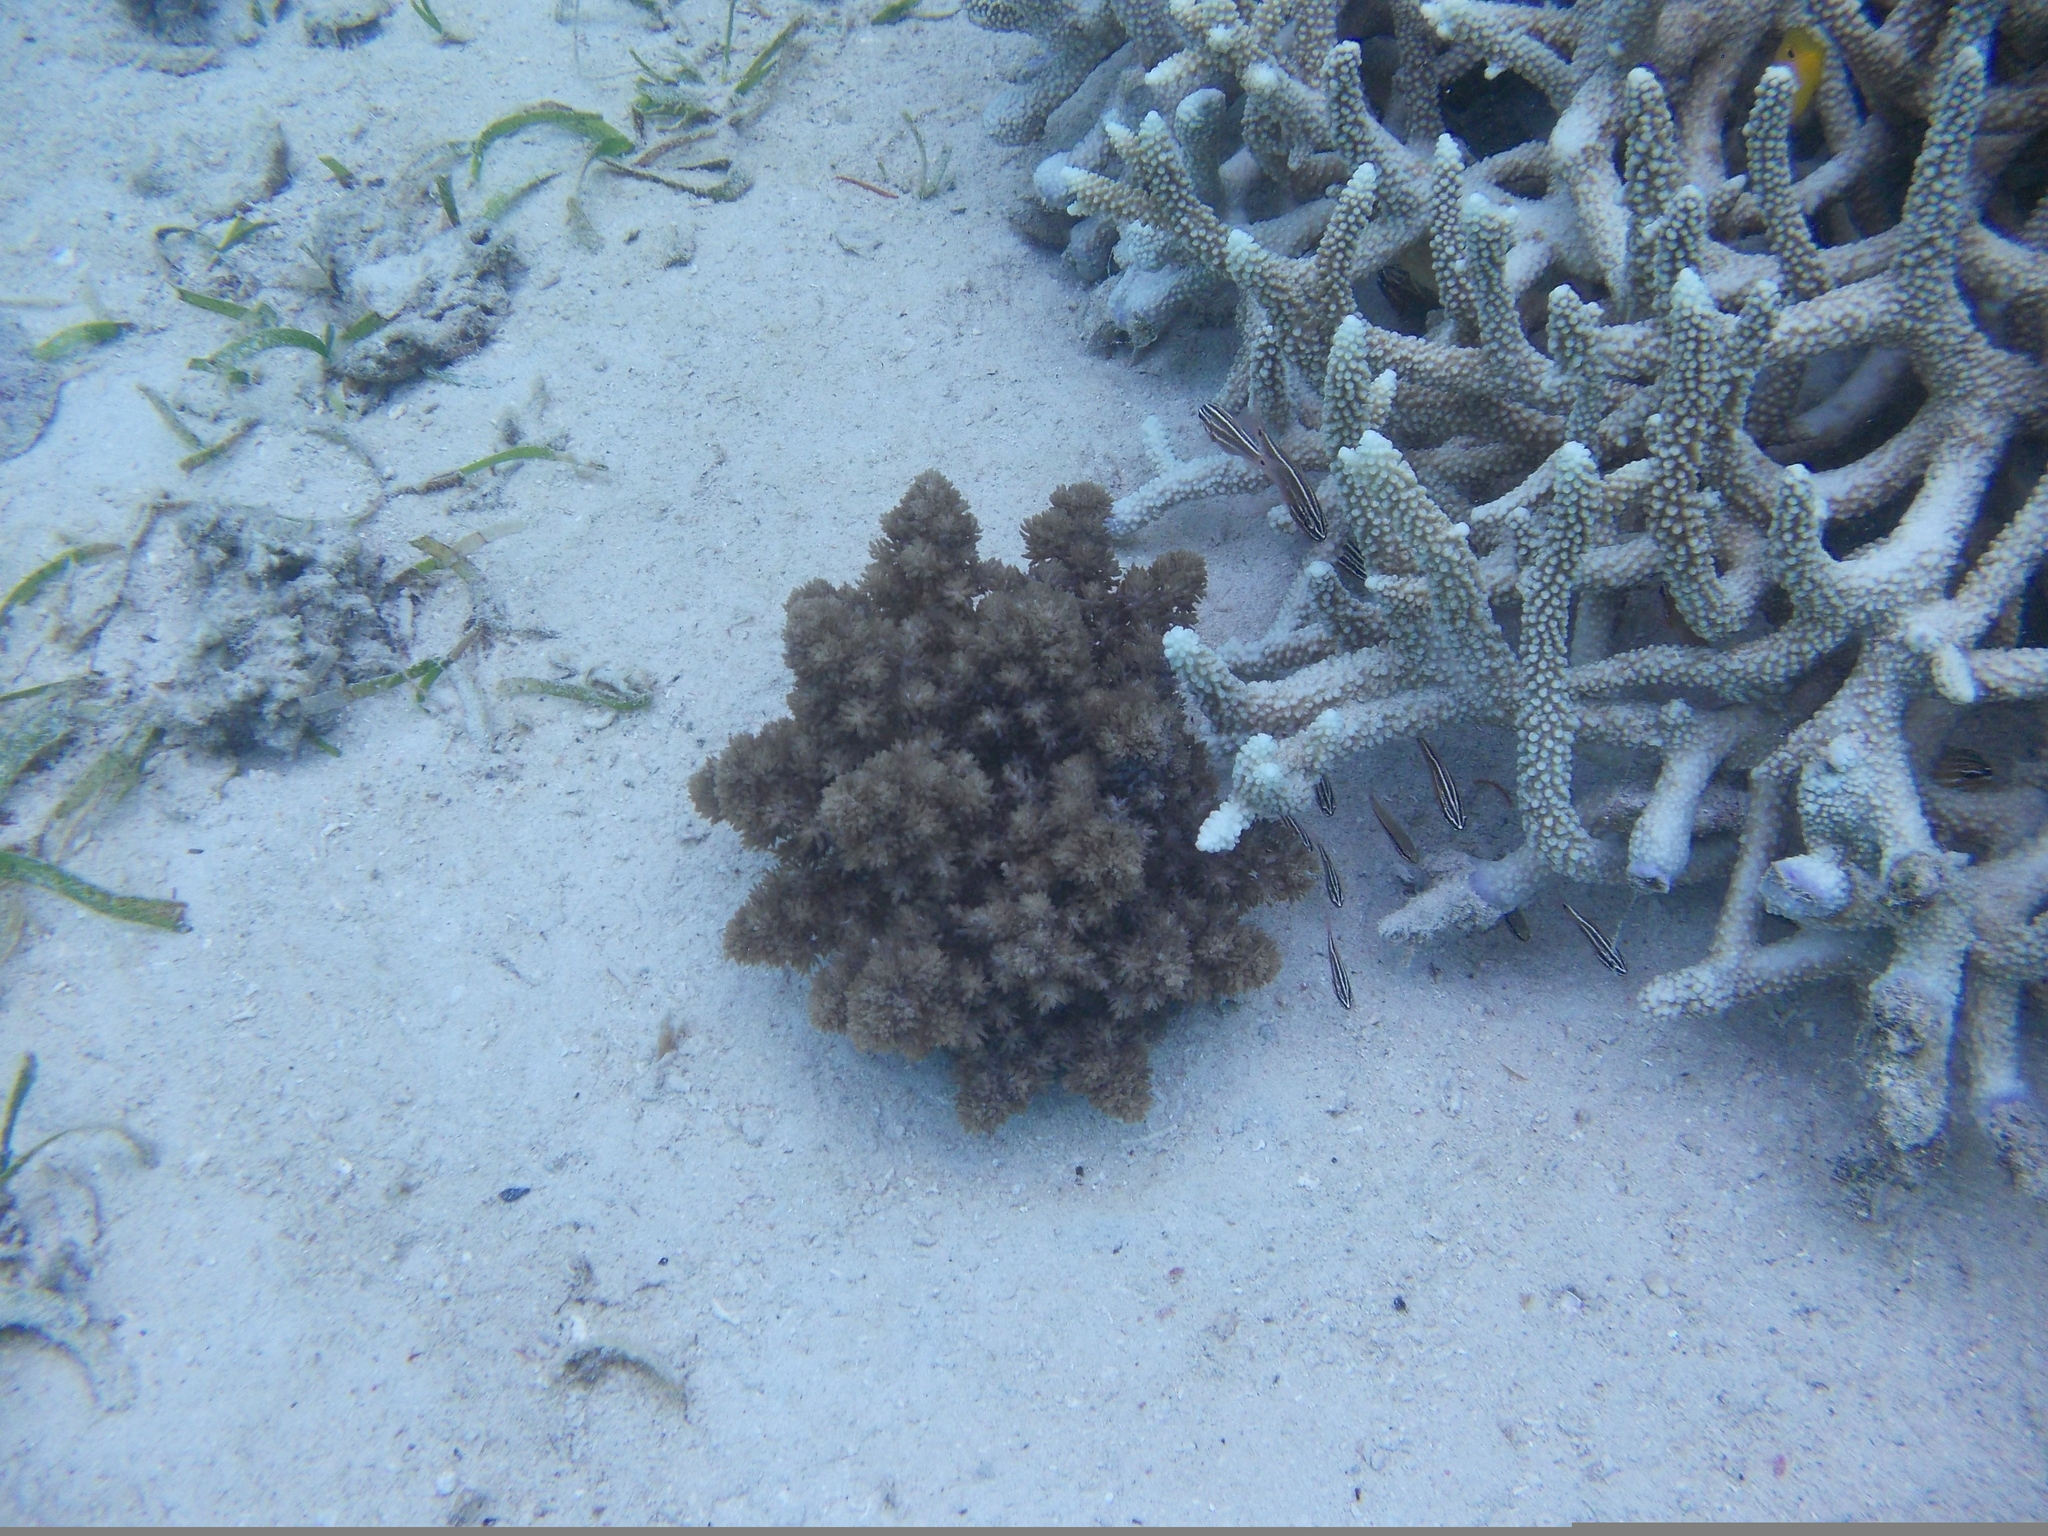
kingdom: Animalia
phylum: Cnidaria
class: Anthozoa
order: Actiniaria
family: Actinodendridae
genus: Actinodendron
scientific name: Actinodendron arboreum
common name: Tree anemone
